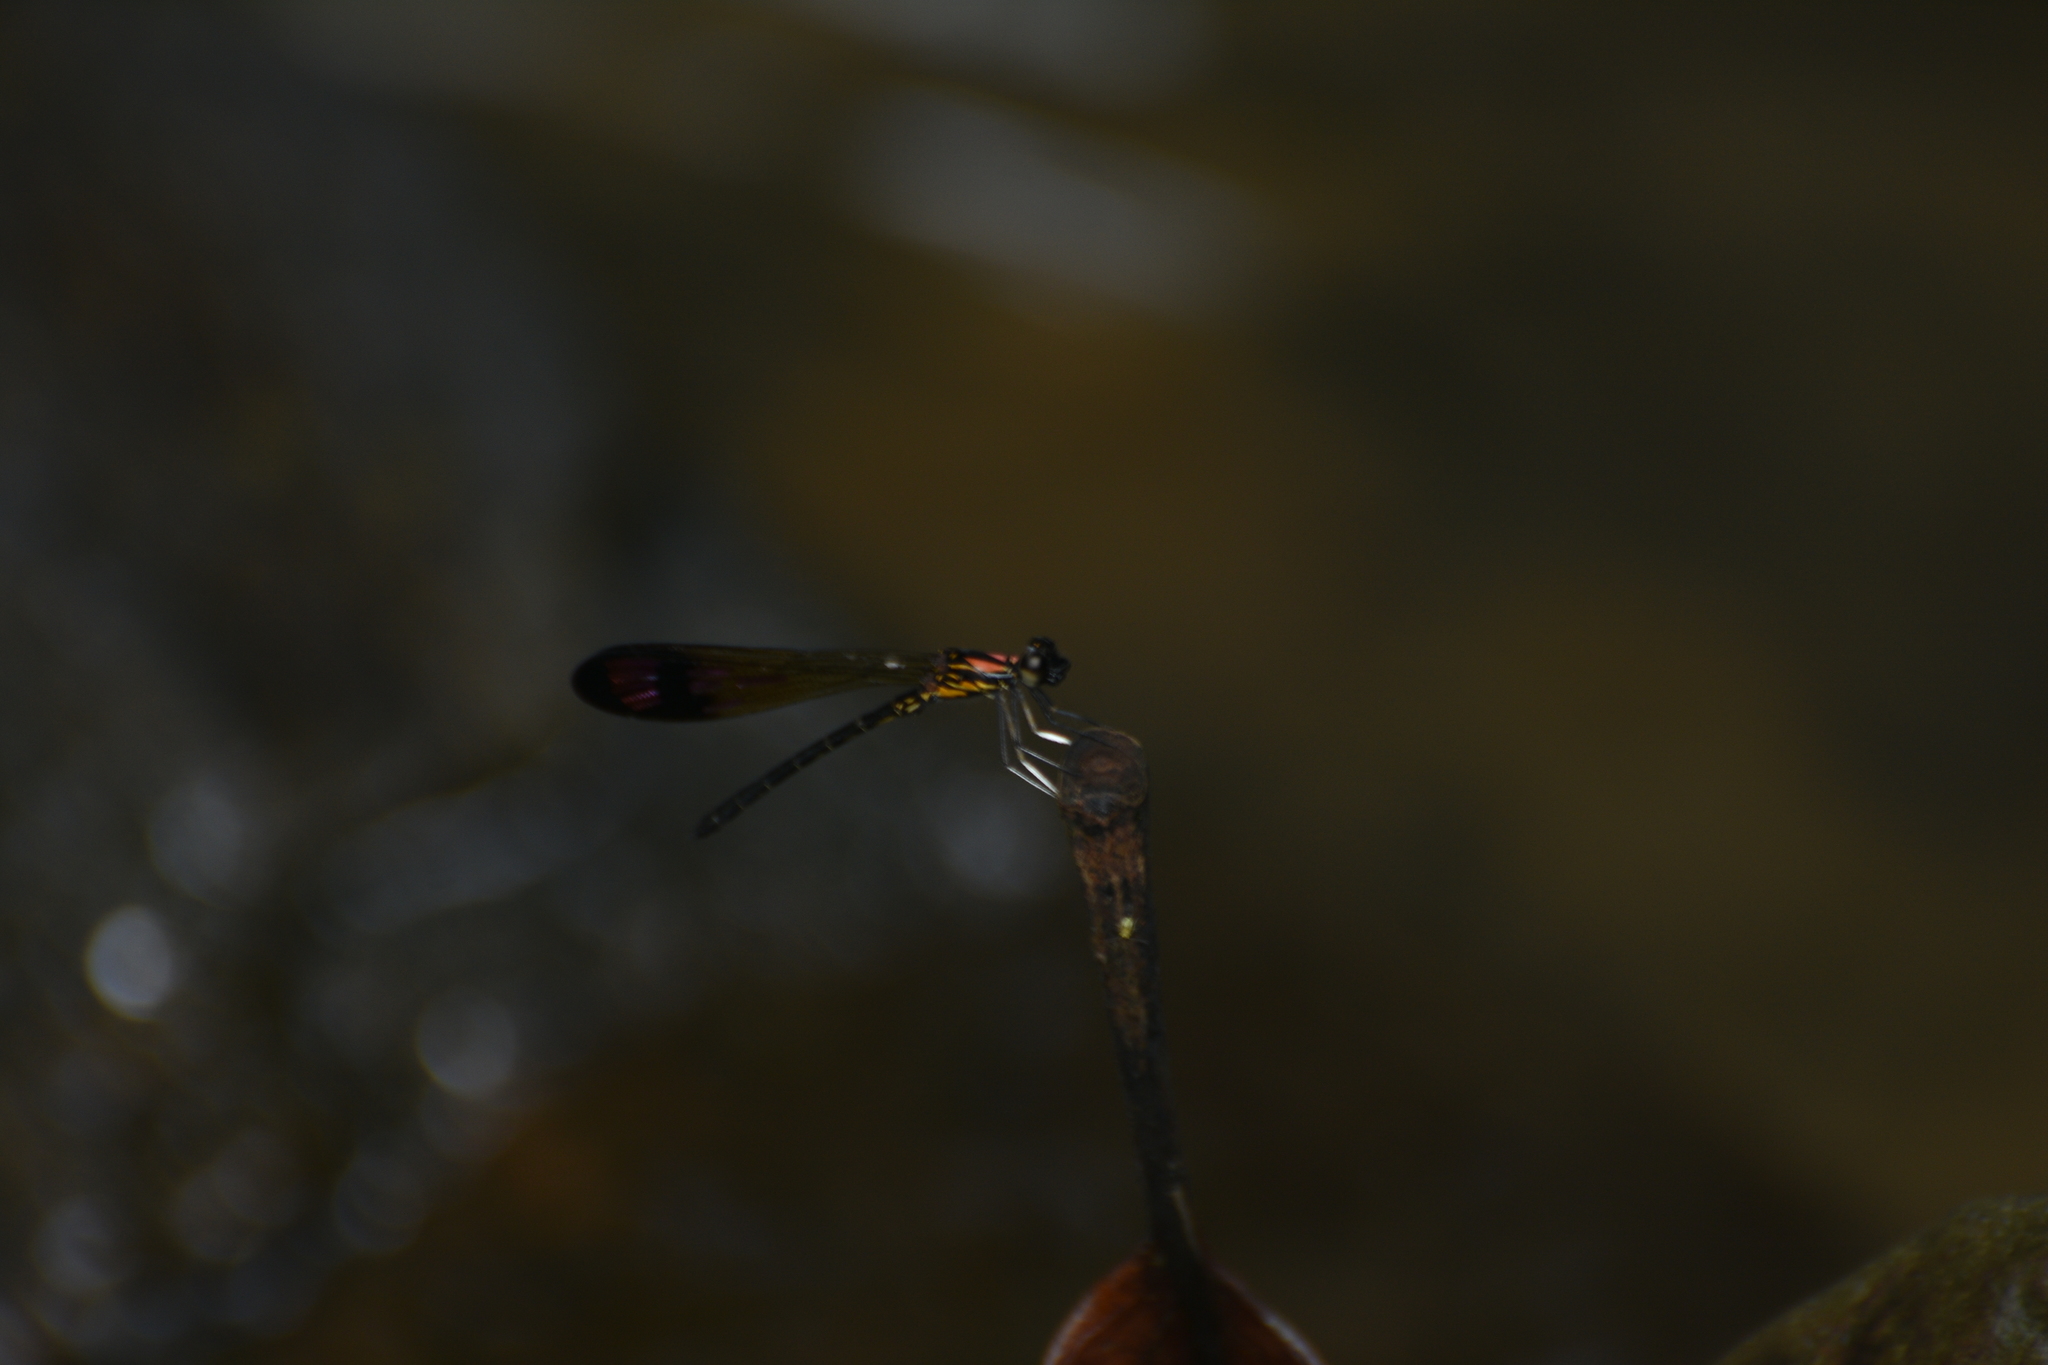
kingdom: Animalia
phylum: Arthropoda
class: Insecta
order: Odonata
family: Chlorocyphidae
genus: Heliocypha
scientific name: Heliocypha bisignata
